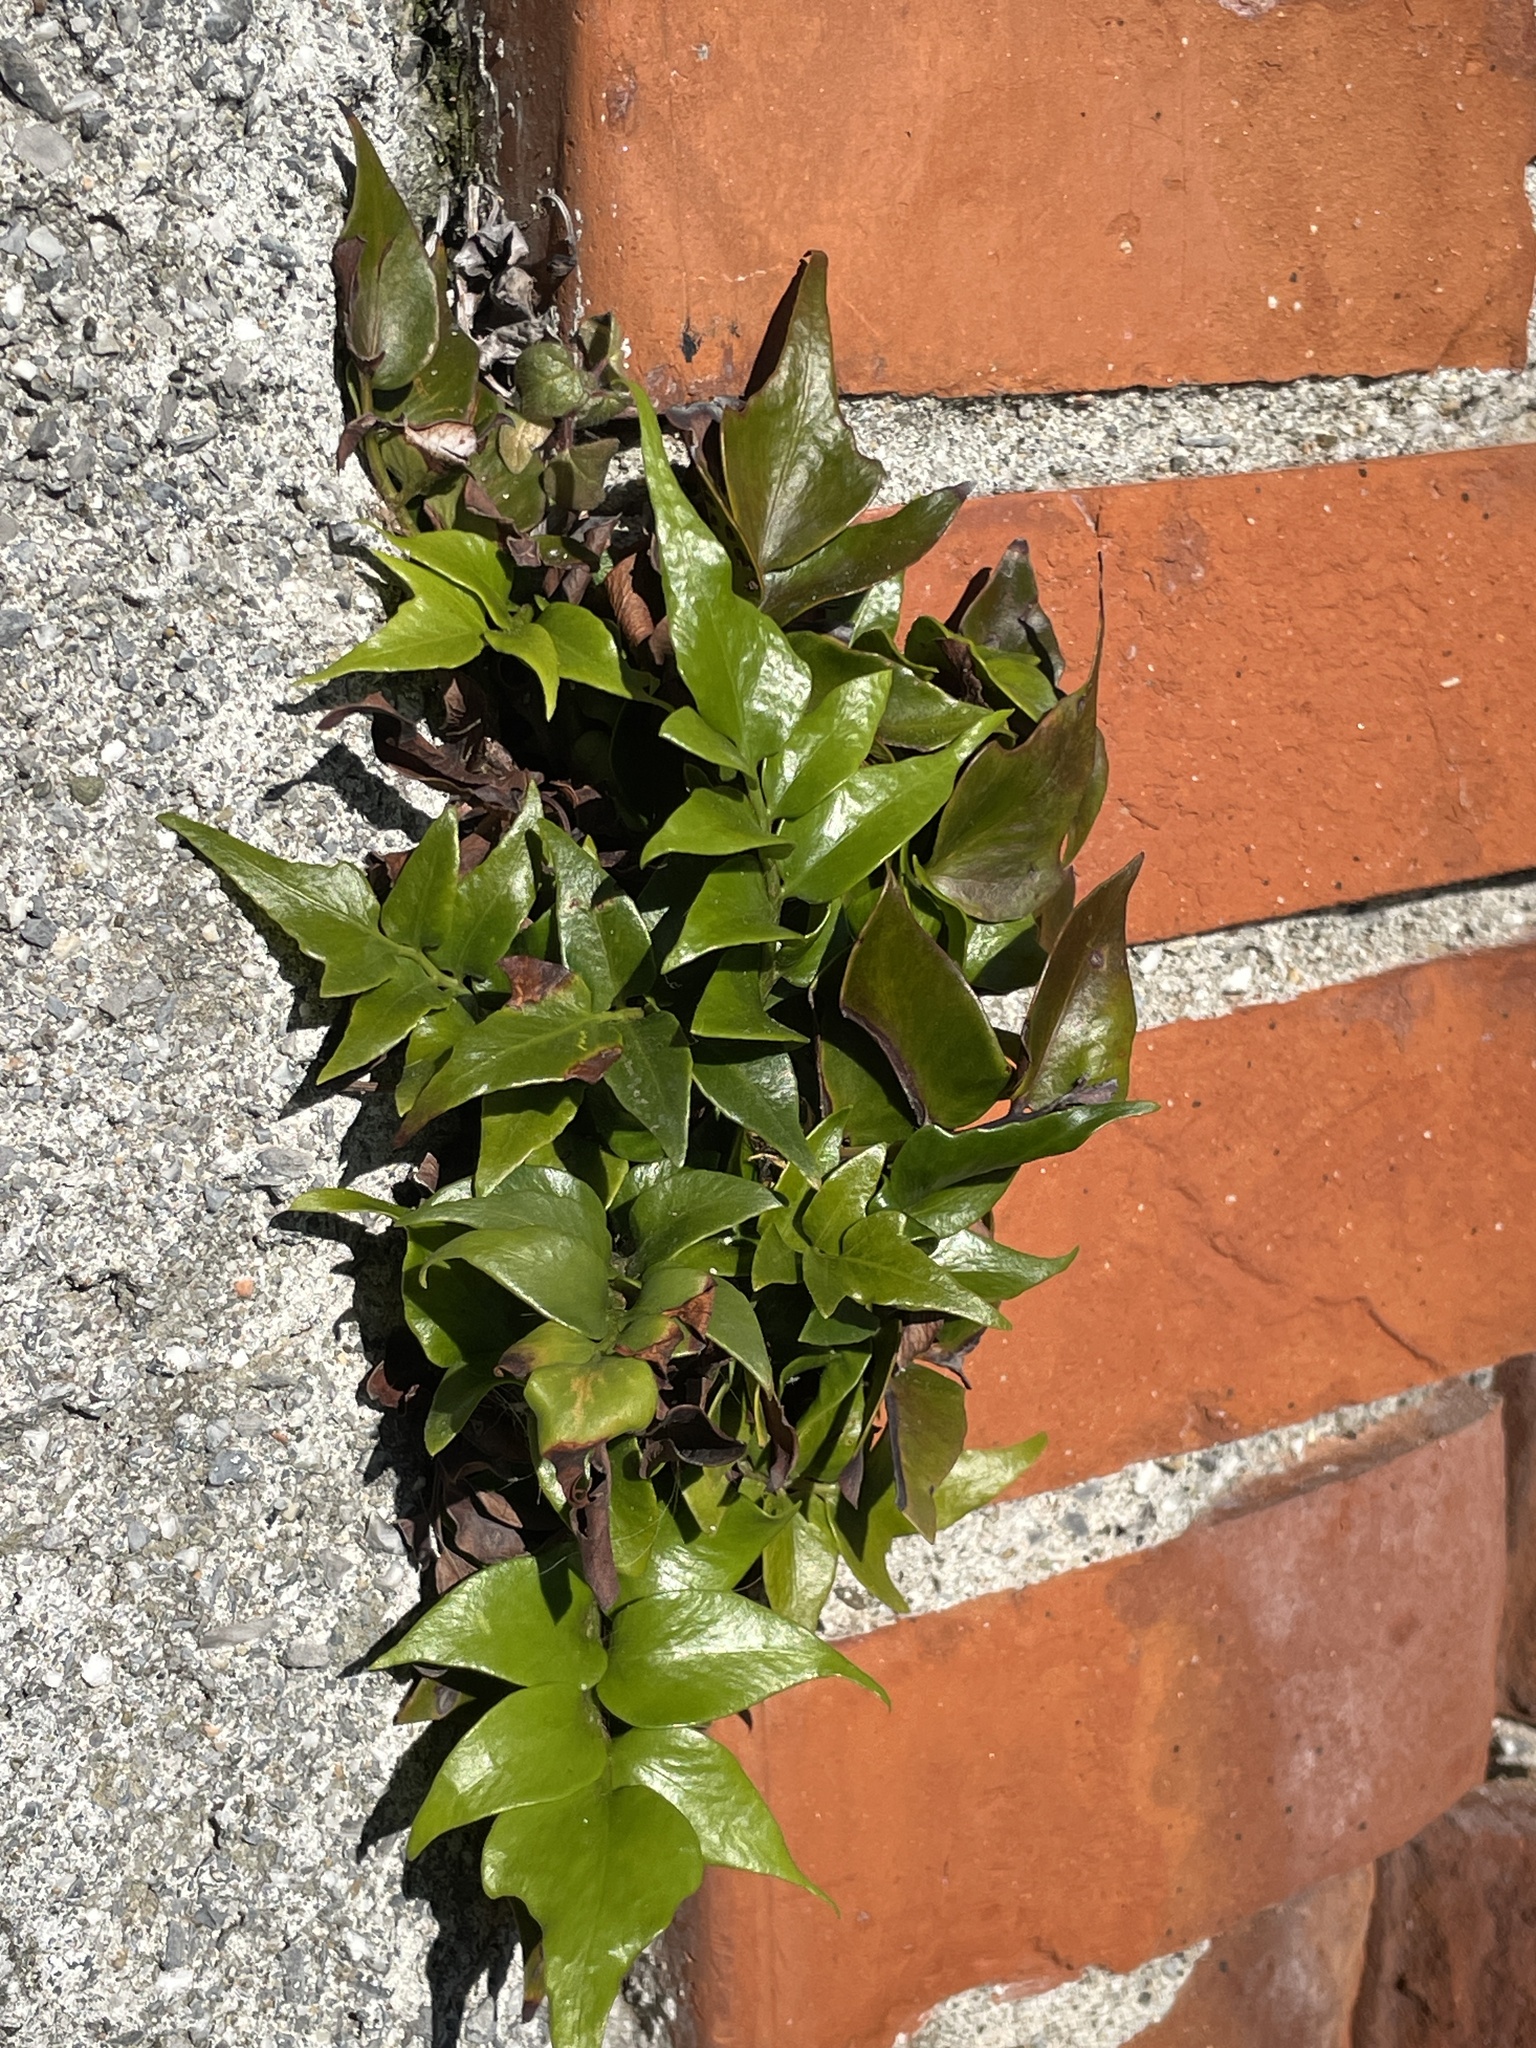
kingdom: Plantae
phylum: Tracheophyta
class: Polypodiopsida
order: Polypodiales
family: Dryopteridaceae
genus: Cyrtomium
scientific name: Cyrtomium falcatum
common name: House holly-fern
